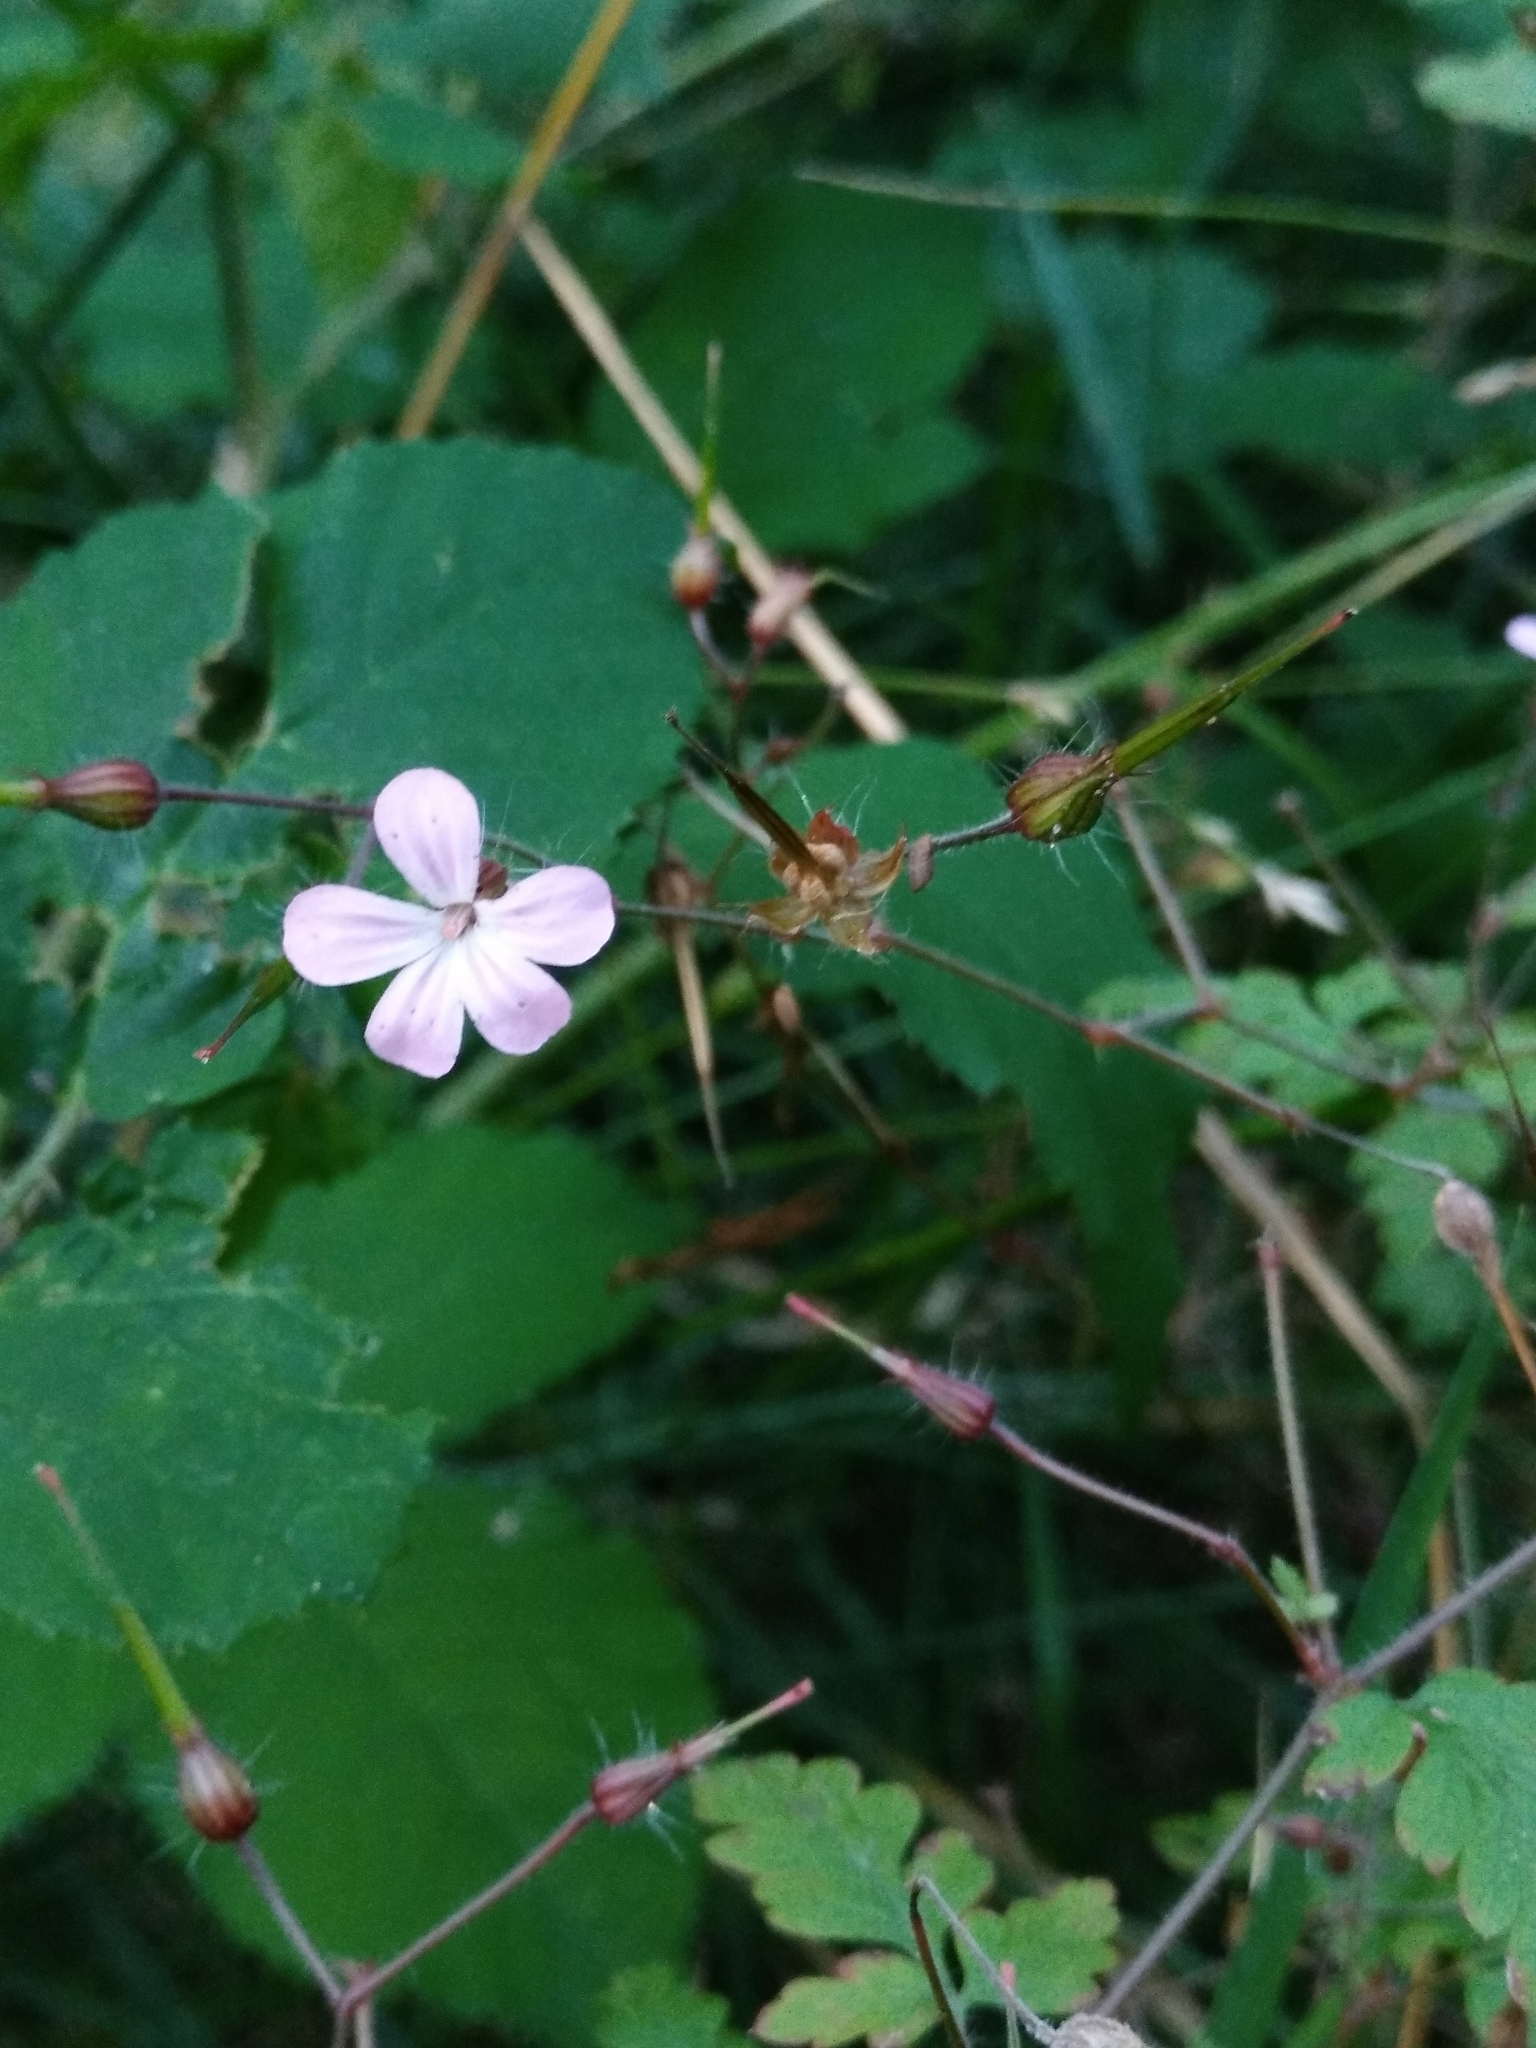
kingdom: Plantae
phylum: Tracheophyta
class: Magnoliopsida
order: Geraniales
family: Geraniaceae
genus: Geranium
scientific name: Geranium robertianum
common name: Herb-robert
